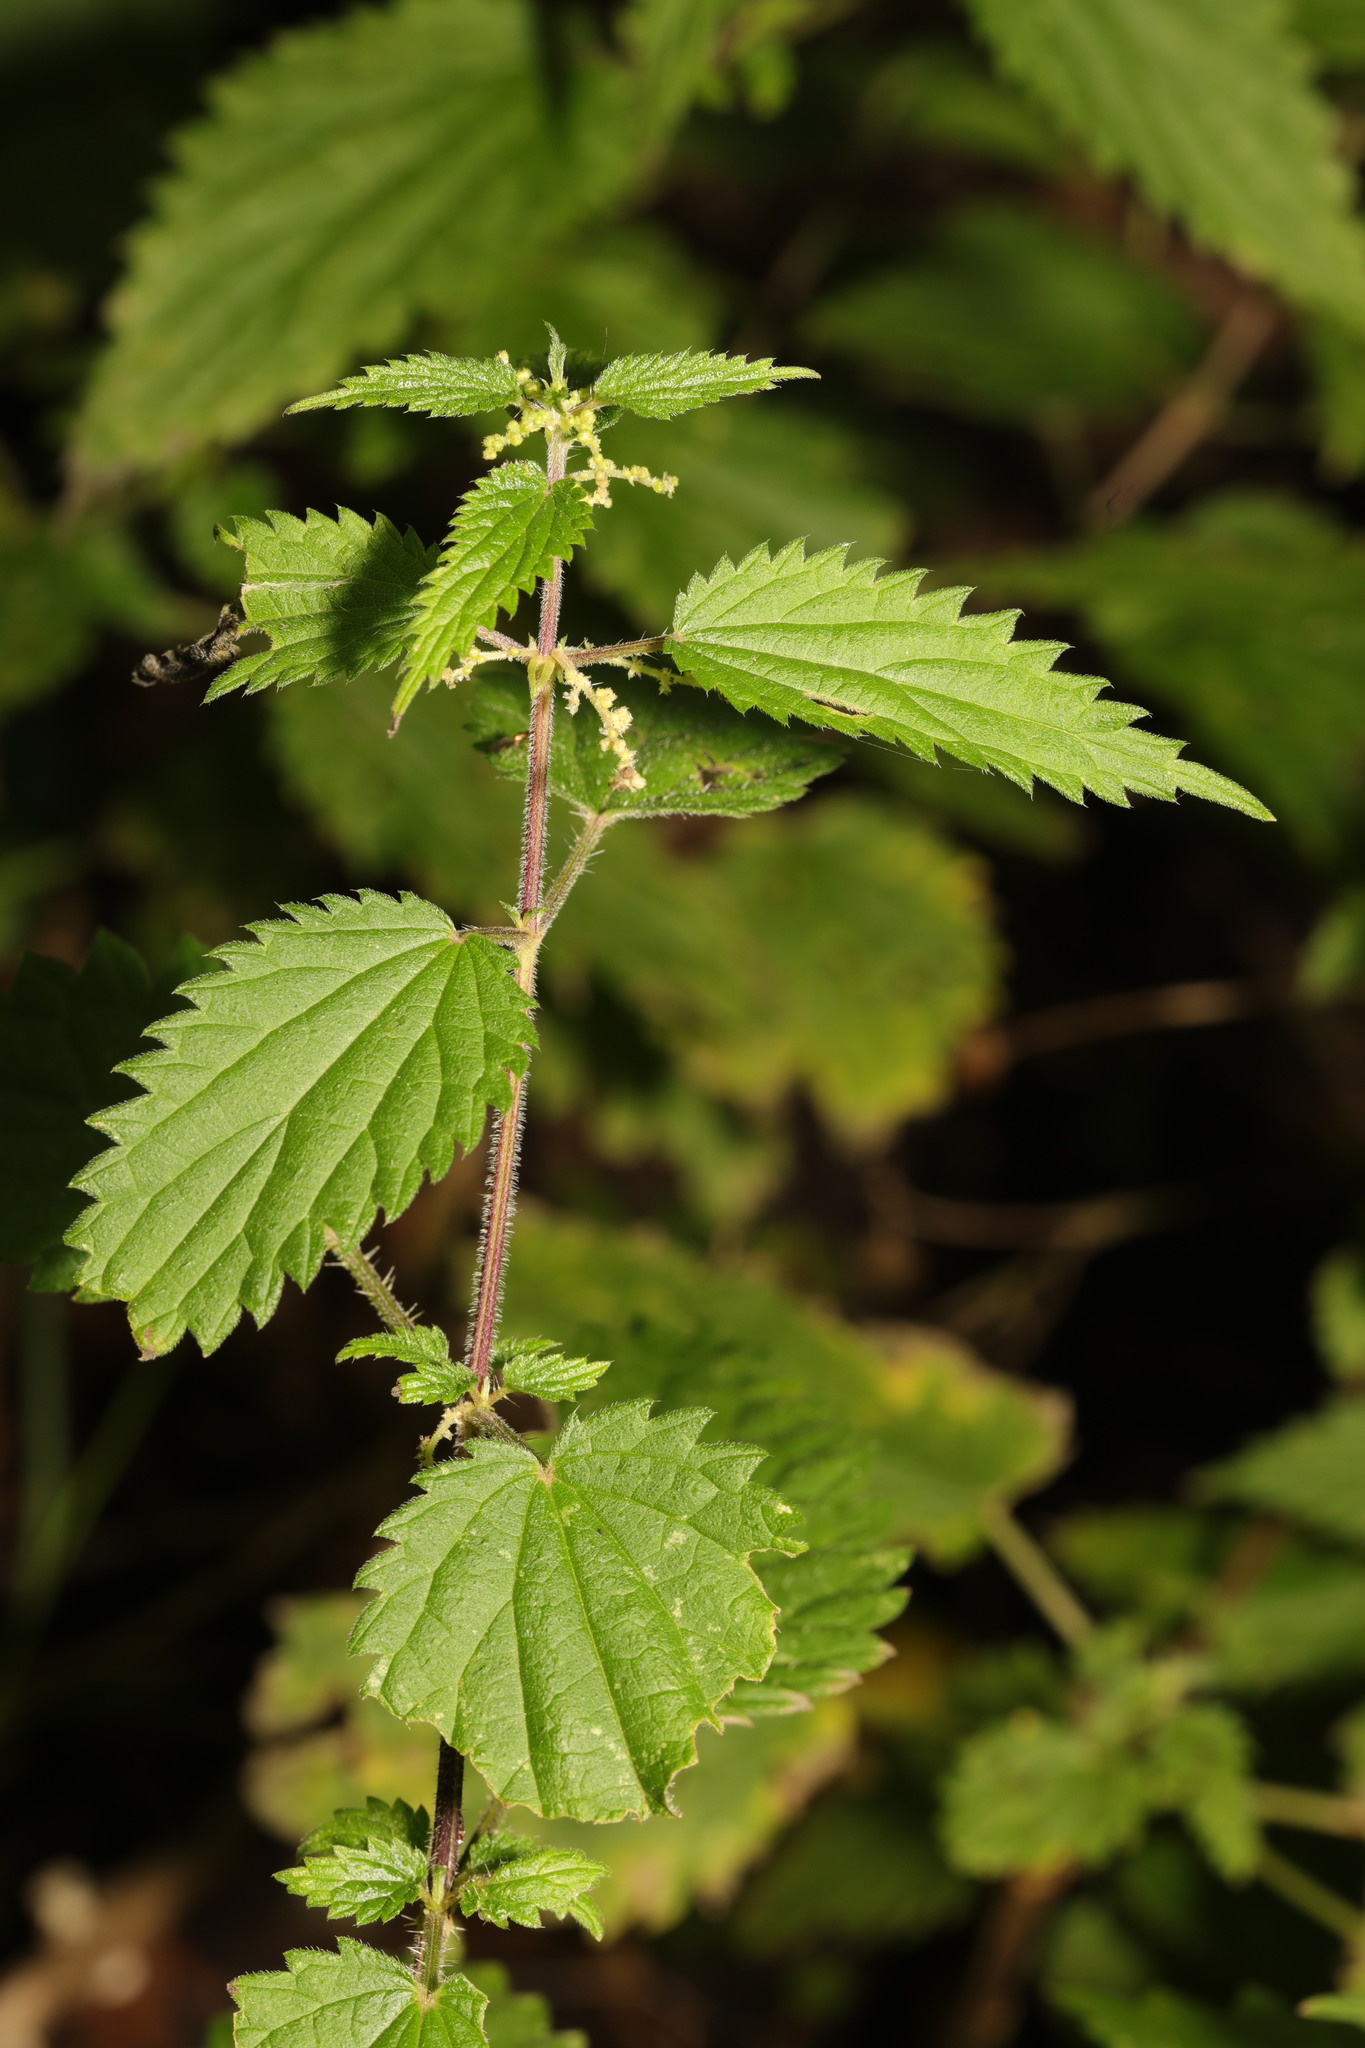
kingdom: Plantae
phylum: Tracheophyta
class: Magnoliopsida
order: Rosales
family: Urticaceae
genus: Urtica
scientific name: Urtica dioica
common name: Common nettle
